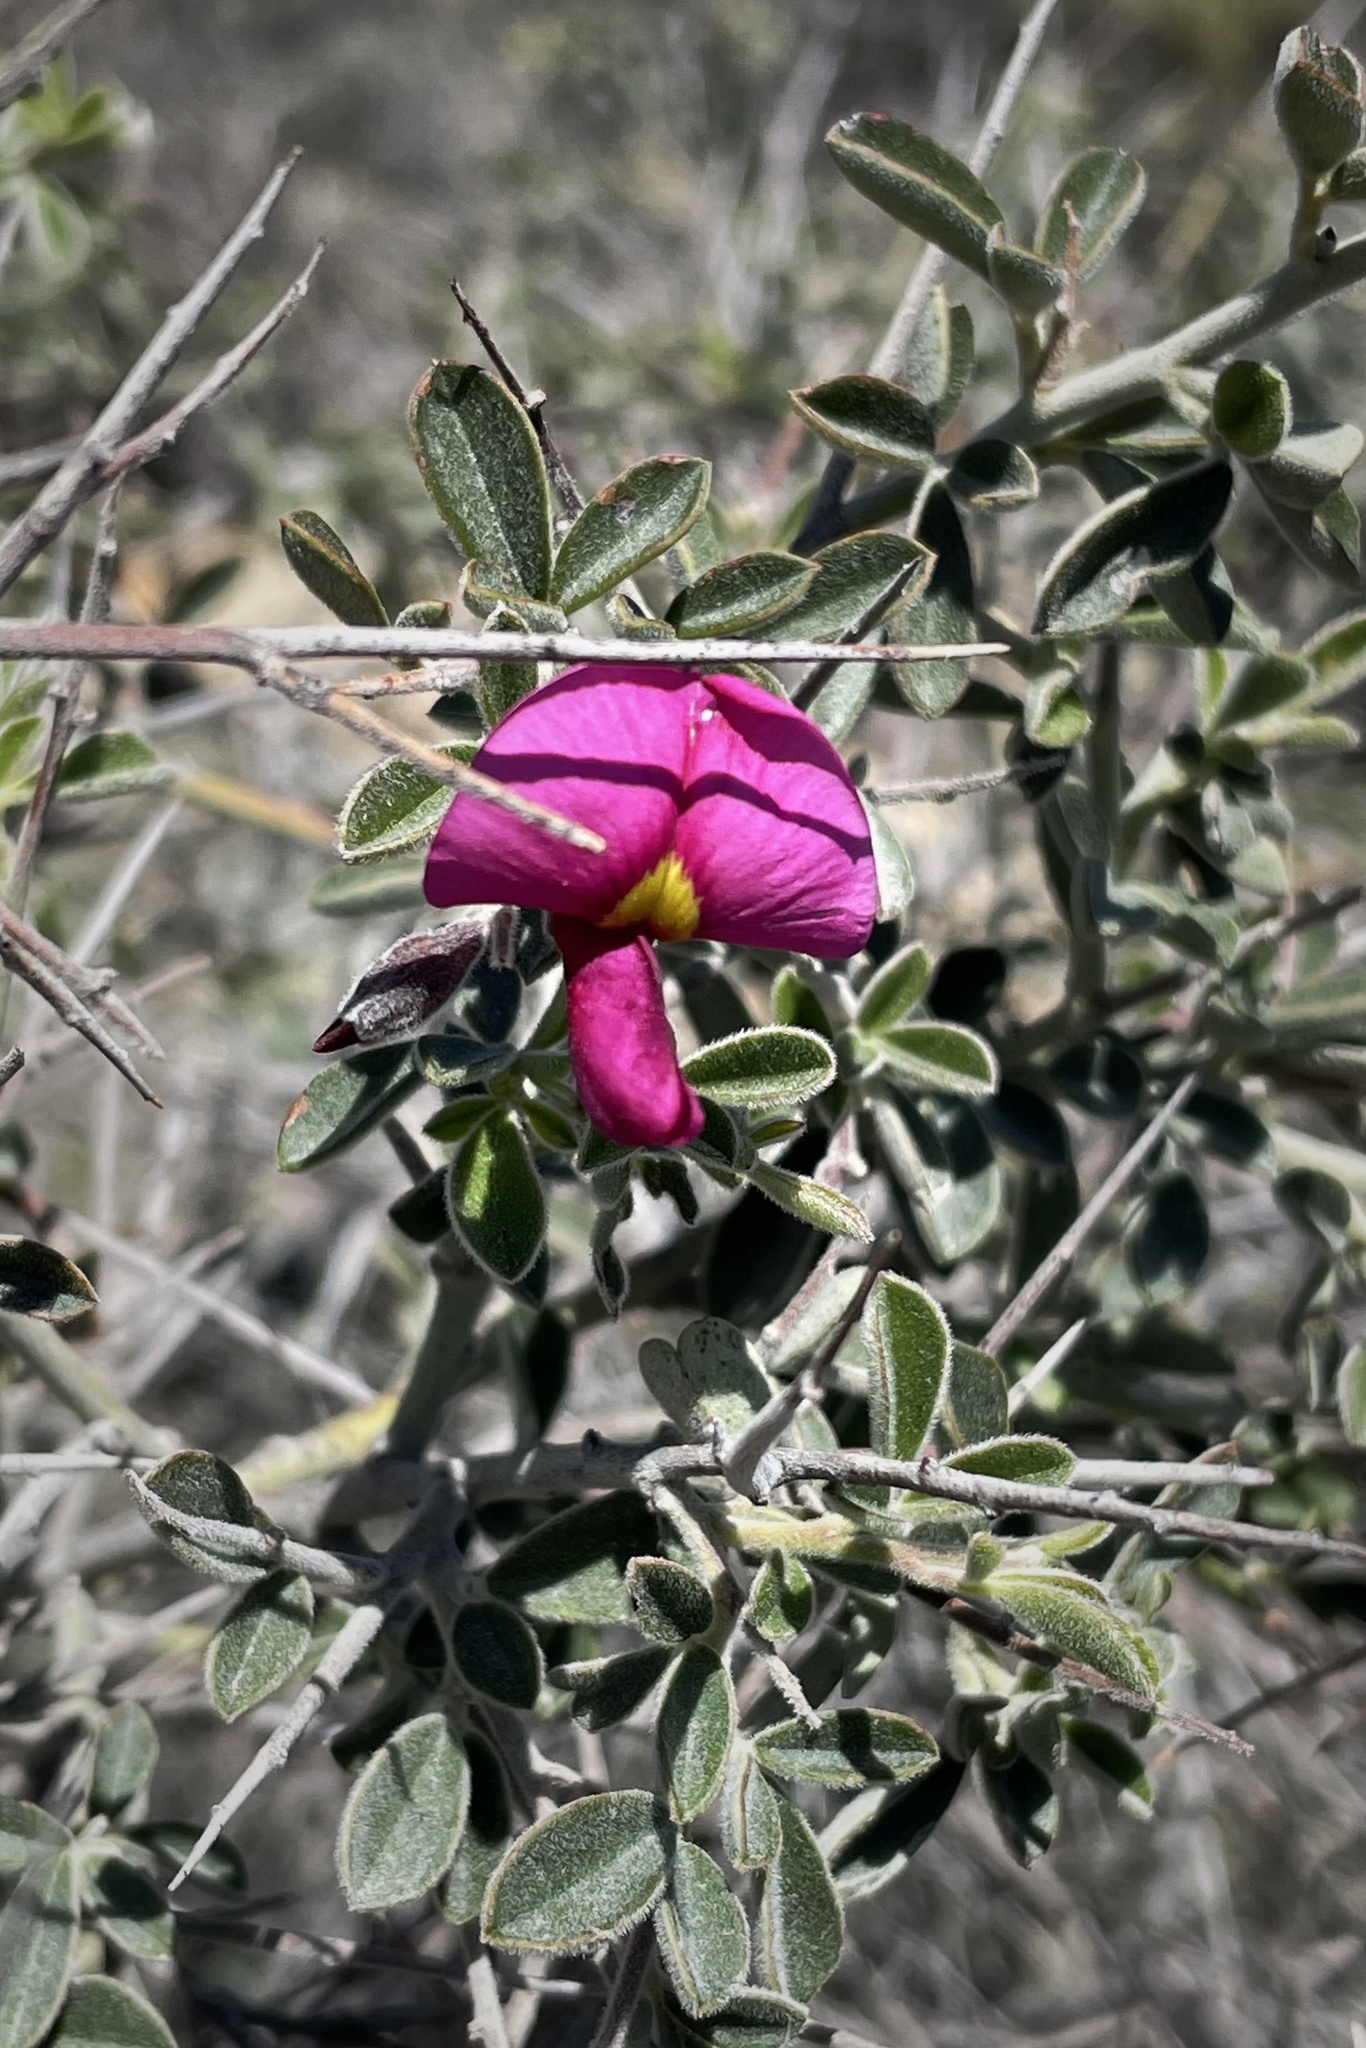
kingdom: Plantae
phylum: Tracheophyta
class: Magnoliopsida
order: Fabales
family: Fabaceae
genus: Pickeringia
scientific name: Pickeringia montana
